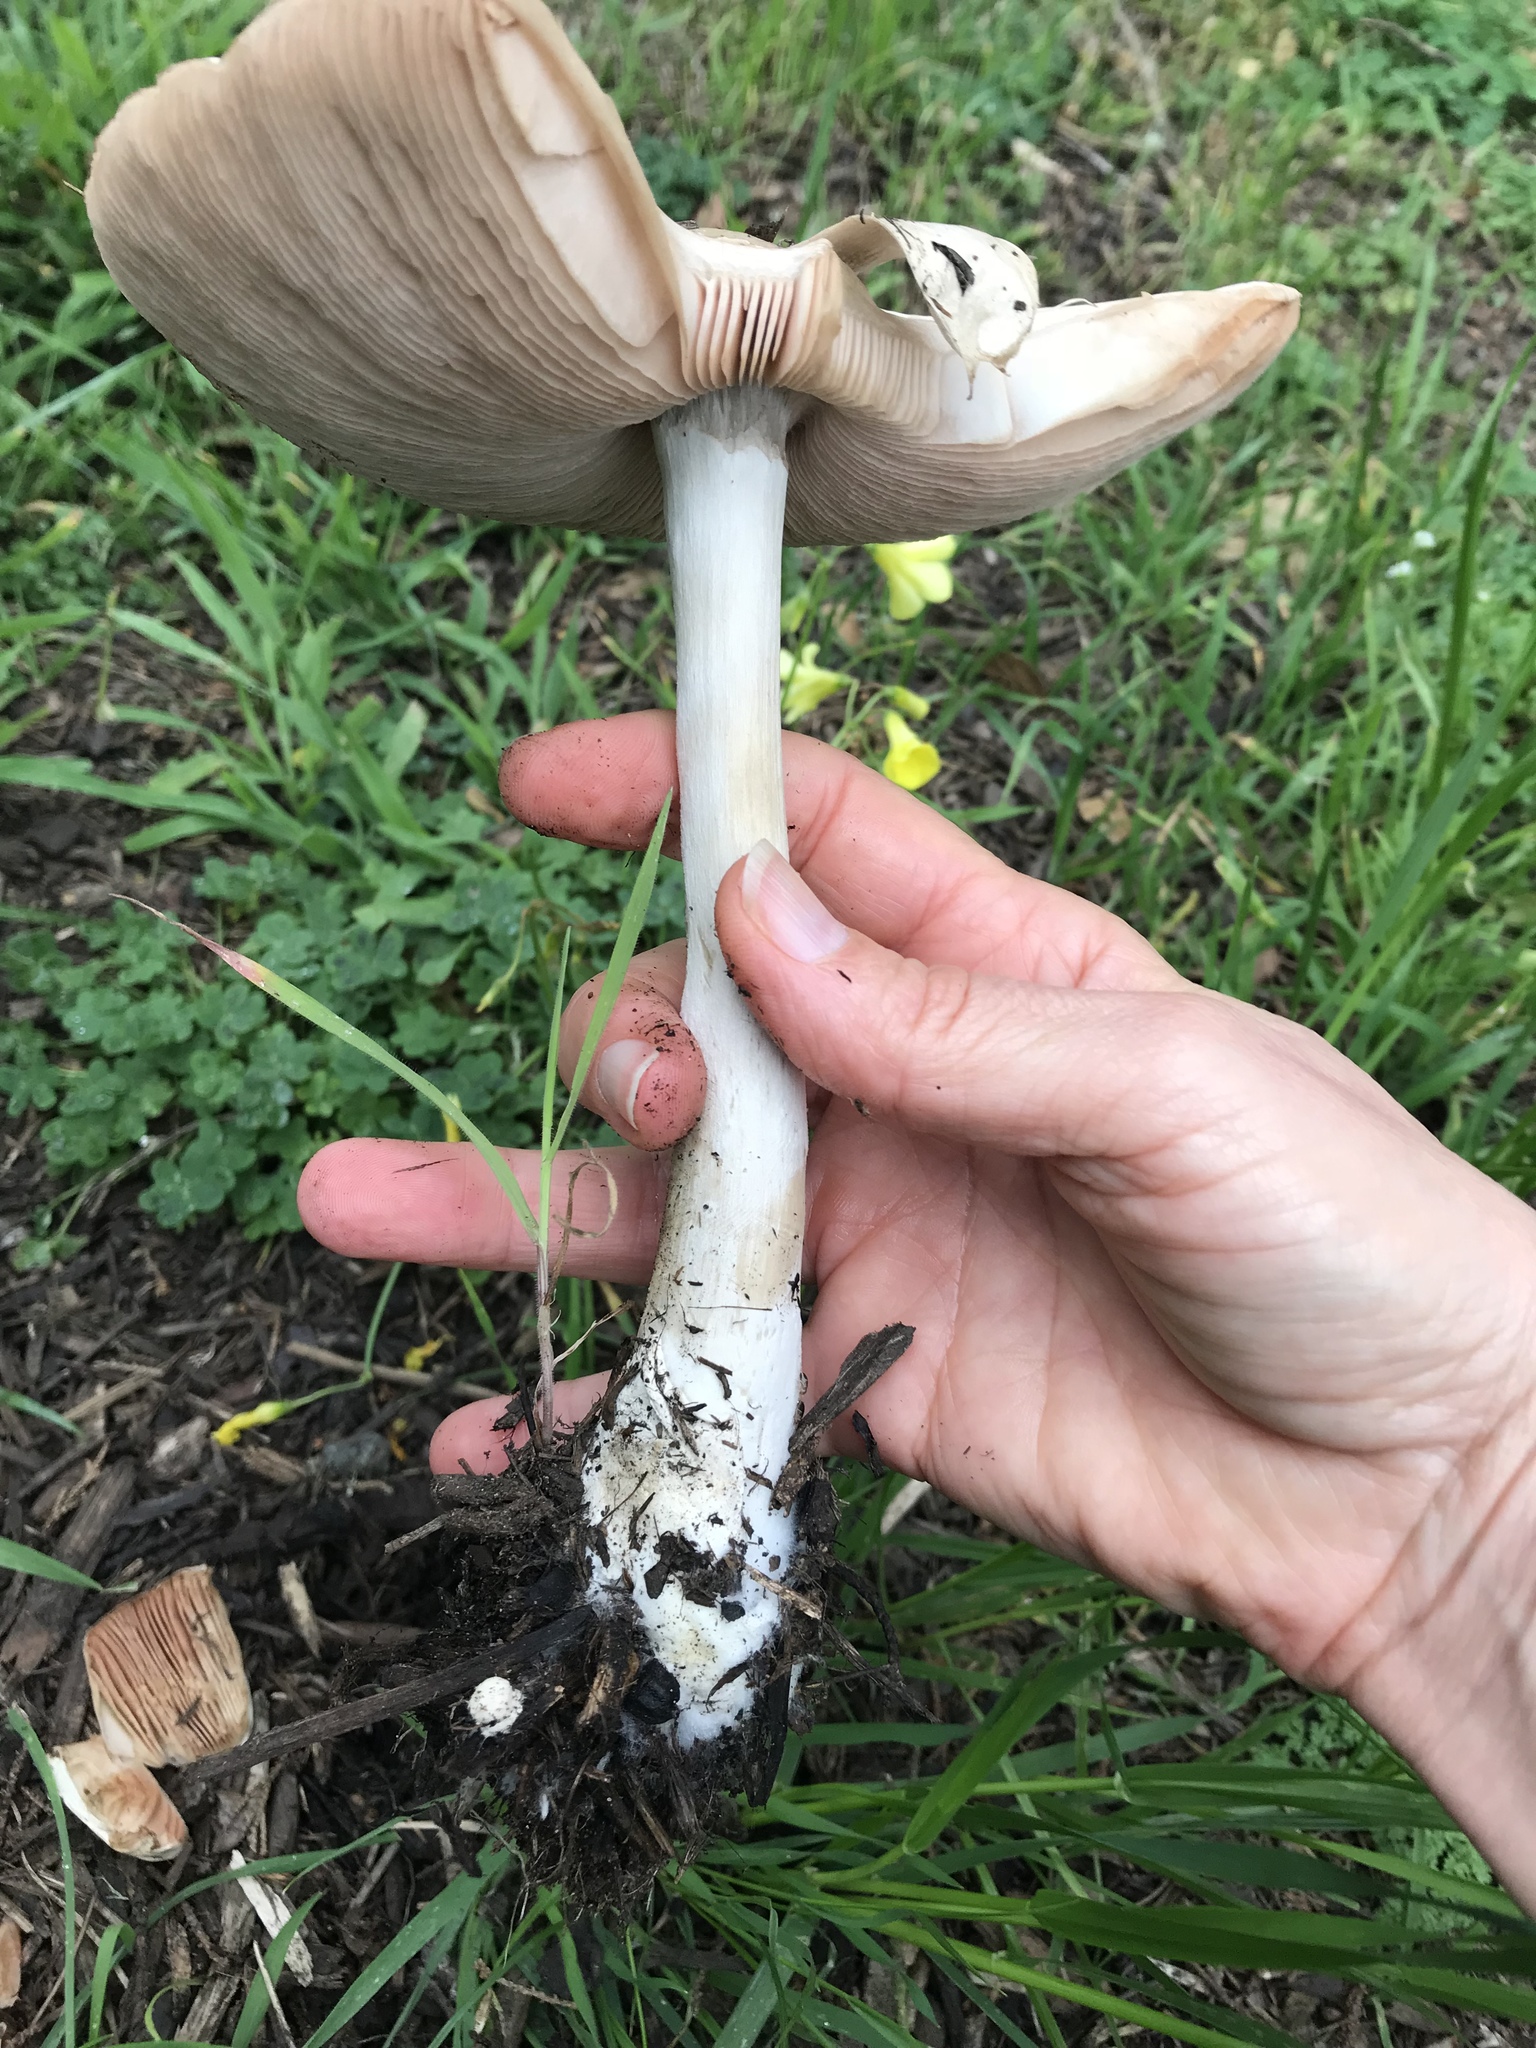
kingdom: Fungi
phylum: Basidiomycota
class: Agaricomycetes
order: Agaricales
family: Pluteaceae
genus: Volvopluteus
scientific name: Volvopluteus gloiocephalus
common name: Stubble rosegill
